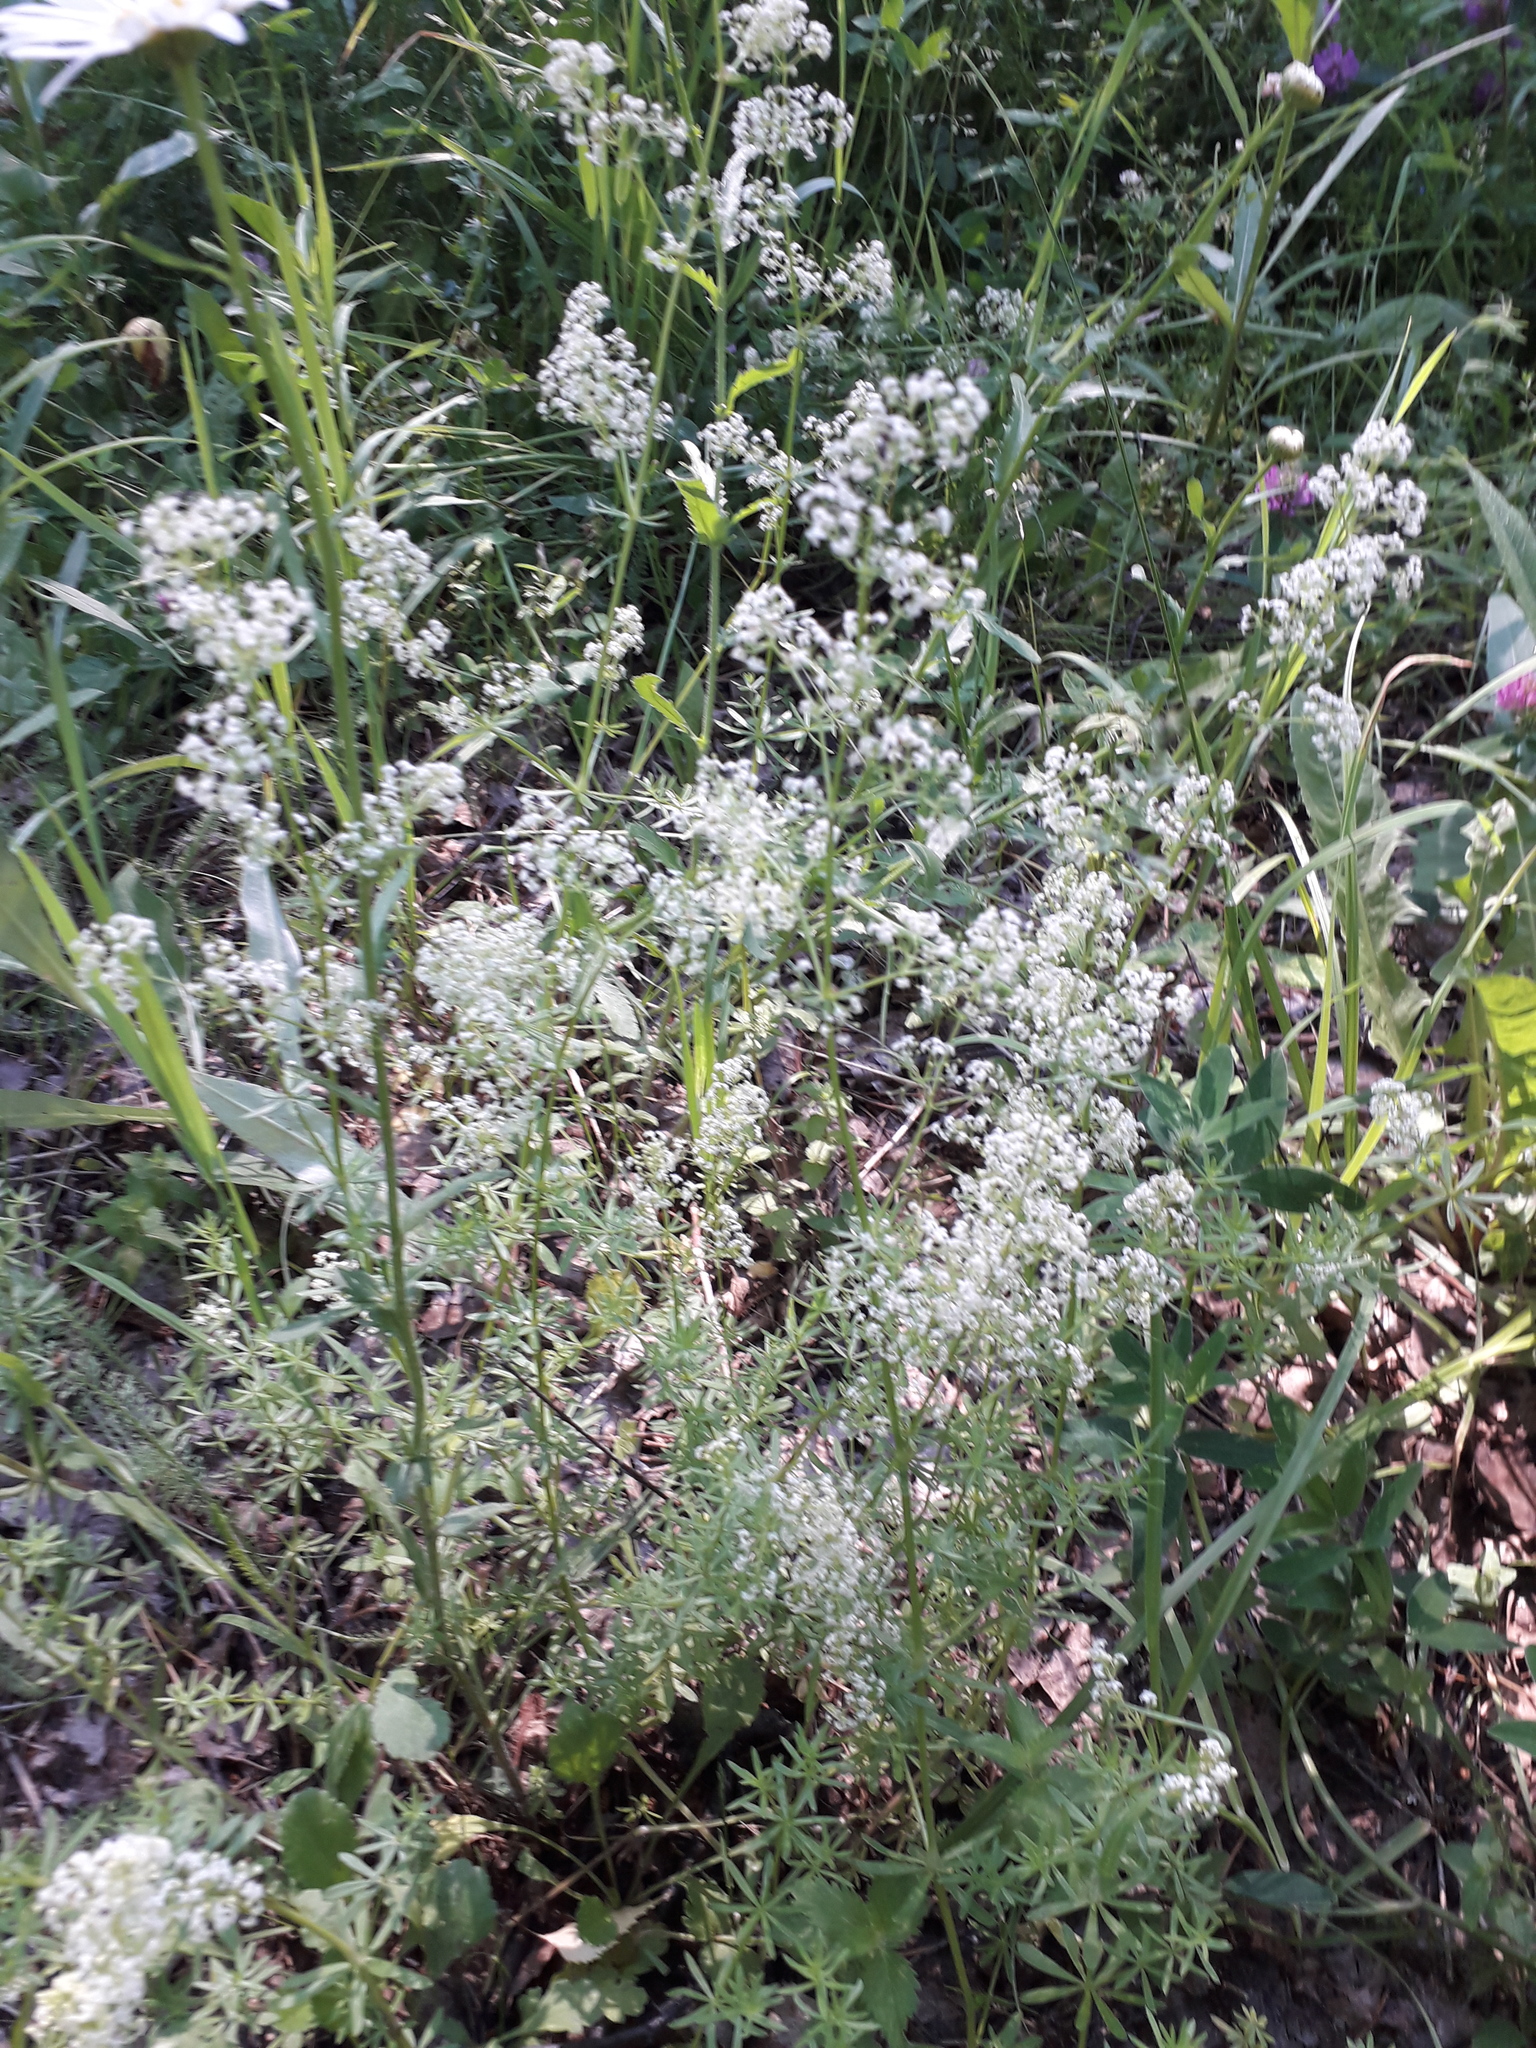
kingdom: Plantae
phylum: Tracheophyta
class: Magnoliopsida
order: Gentianales
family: Rubiaceae
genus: Galium
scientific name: Galium mollugo
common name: Hedge bedstraw
